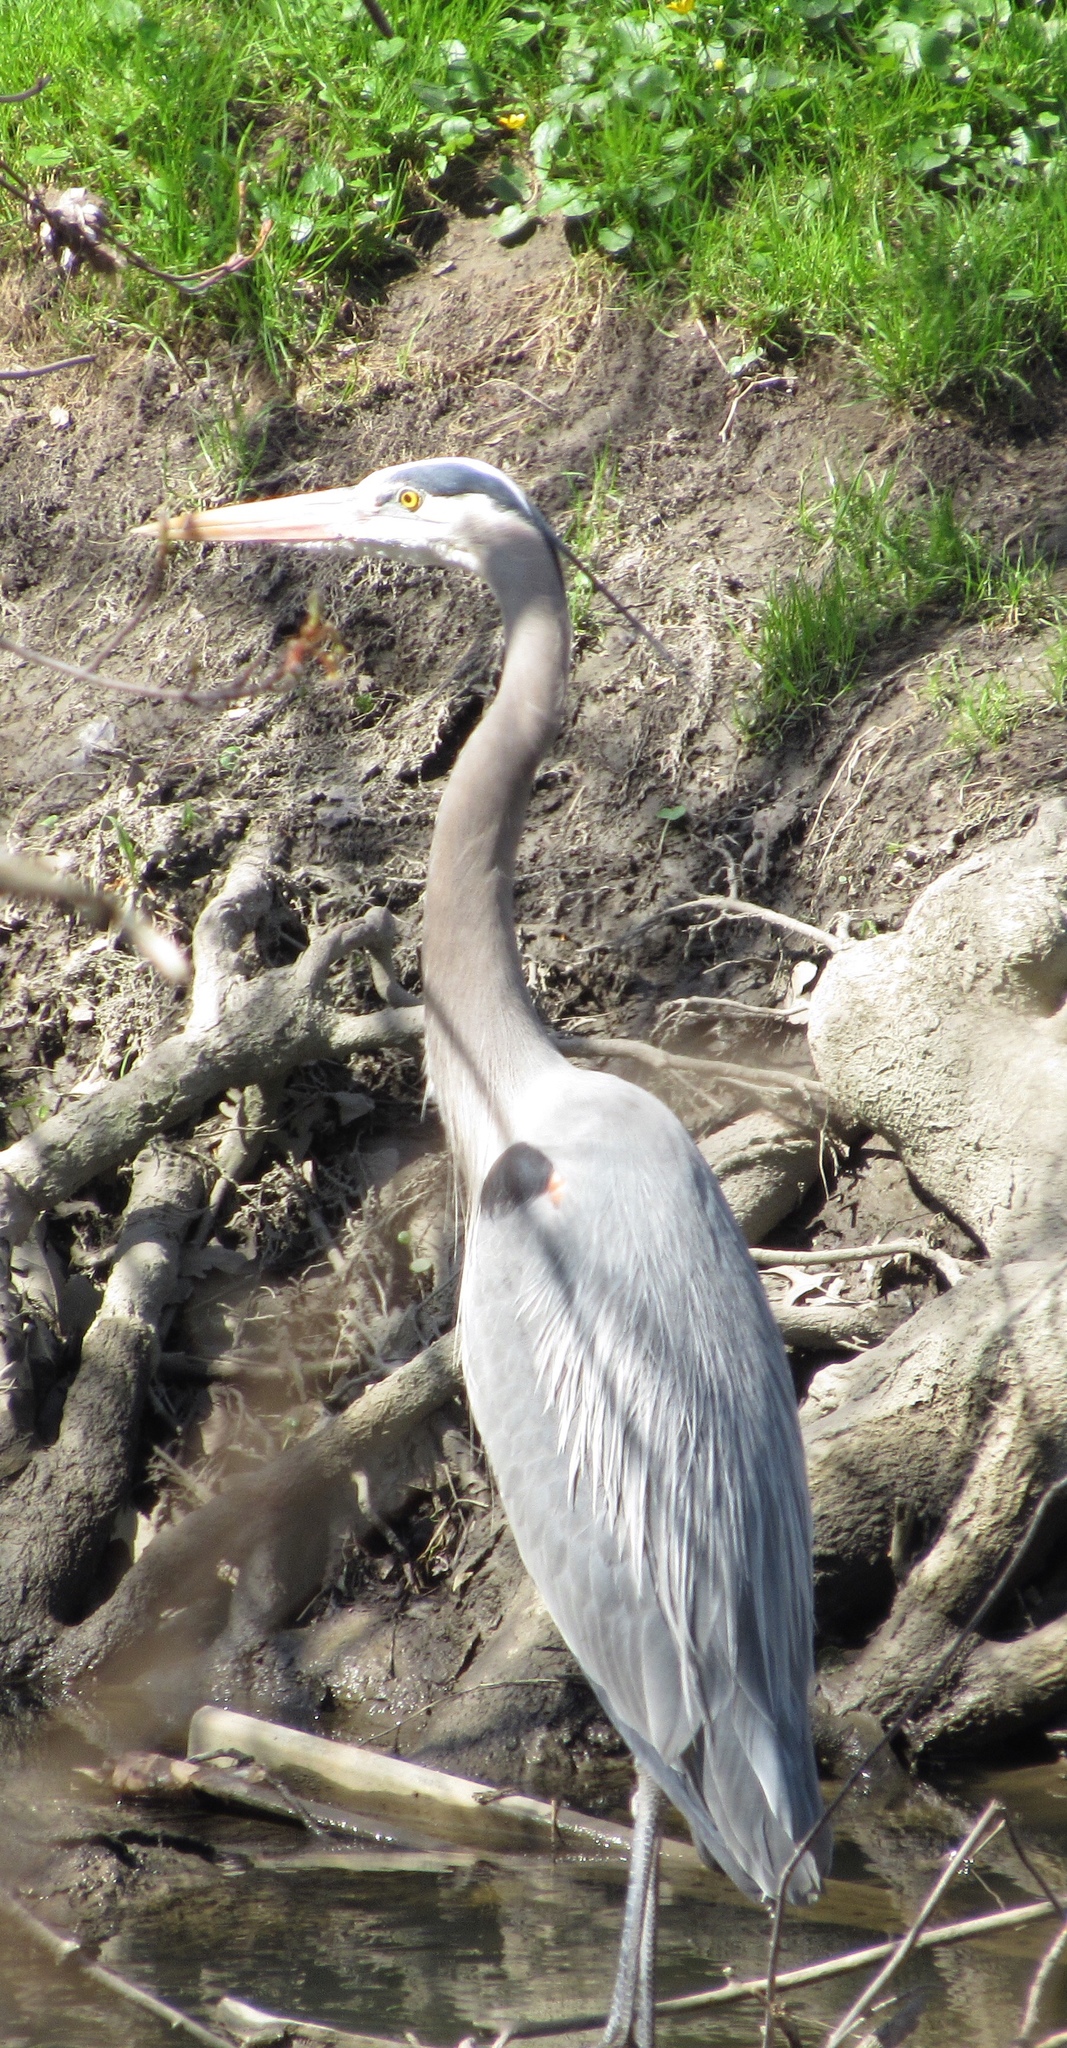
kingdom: Animalia
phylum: Chordata
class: Aves
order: Pelecaniformes
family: Ardeidae
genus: Ardea
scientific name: Ardea herodias
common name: Great blue heron
